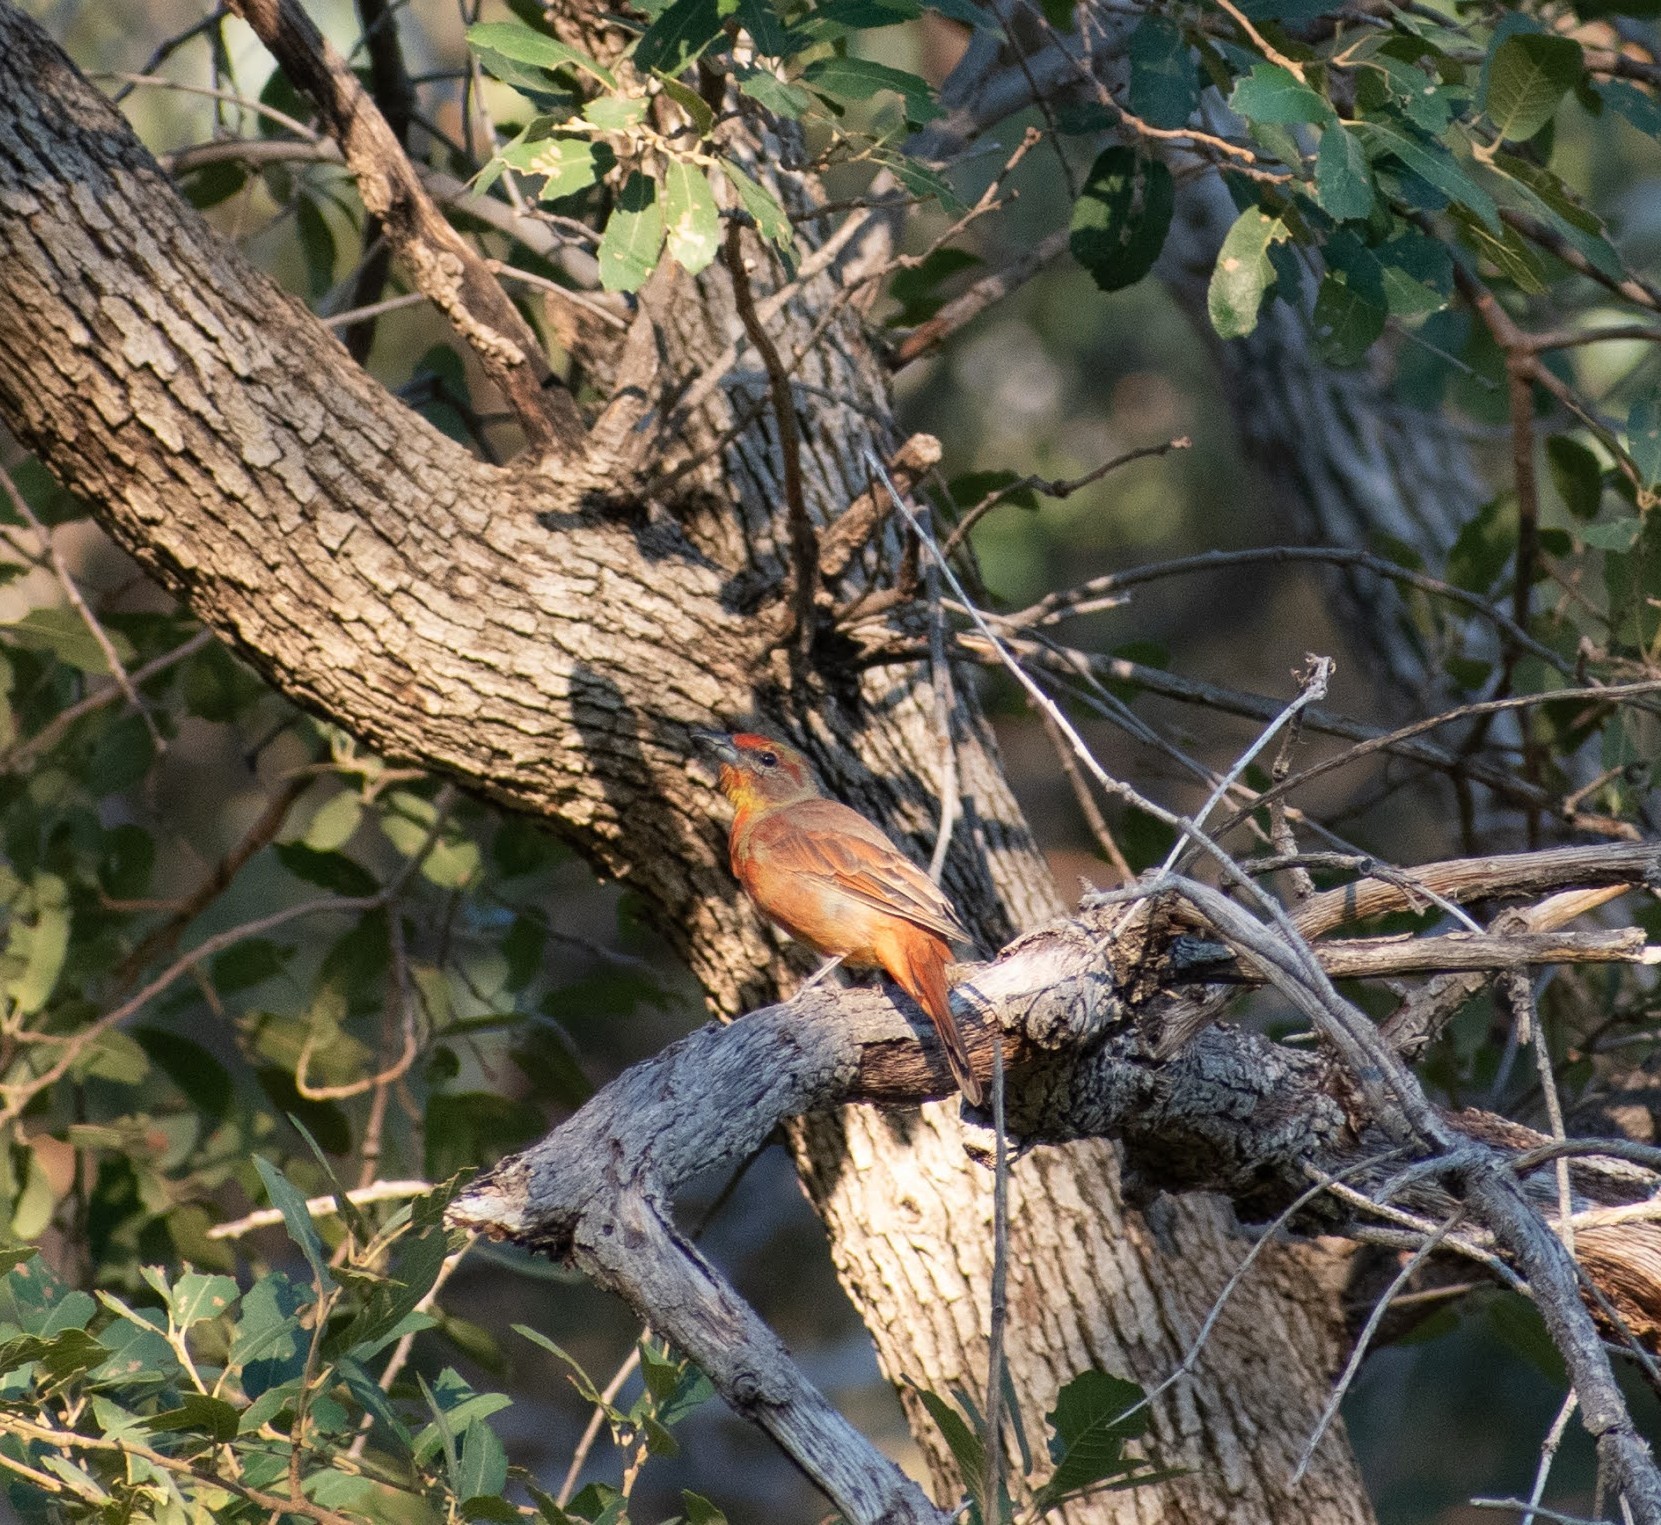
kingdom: Animalia
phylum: Chordata
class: Aves
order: Passeriformes
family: Cardinalidae
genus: Piranga
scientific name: Piranga flava
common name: Red tanager
